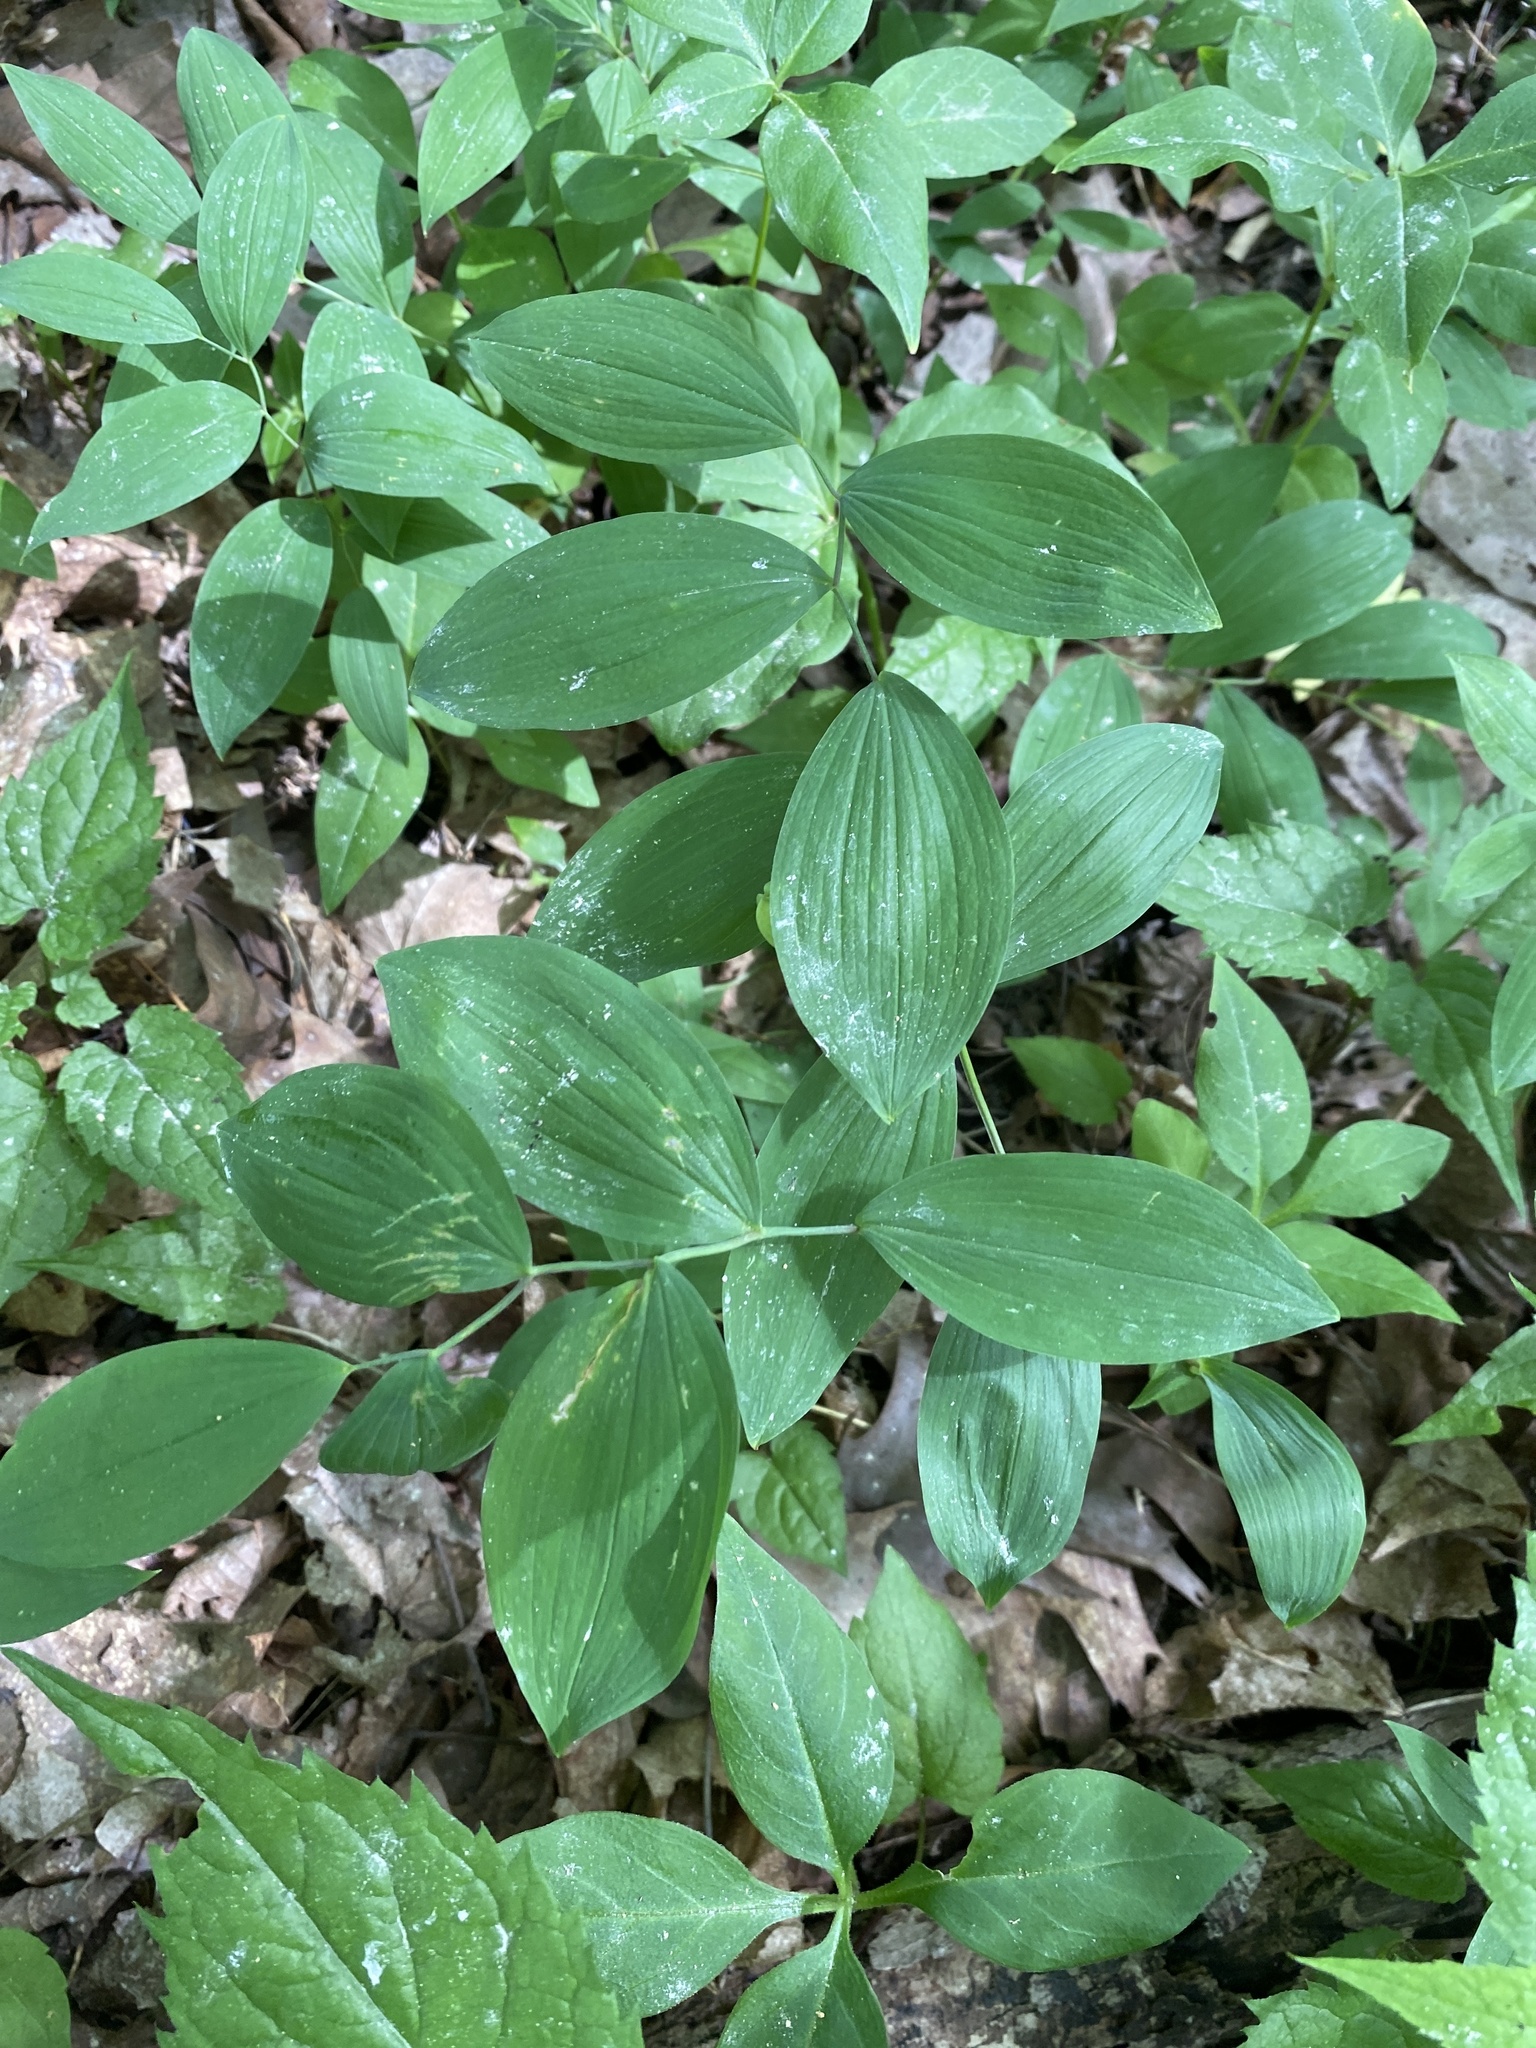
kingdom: Plantae
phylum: Tracheophyta
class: Liliopsida
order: Liliales
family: Colchicaceae
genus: Uvularia
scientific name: Uvularia sessilifolia
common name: Straw-lily
